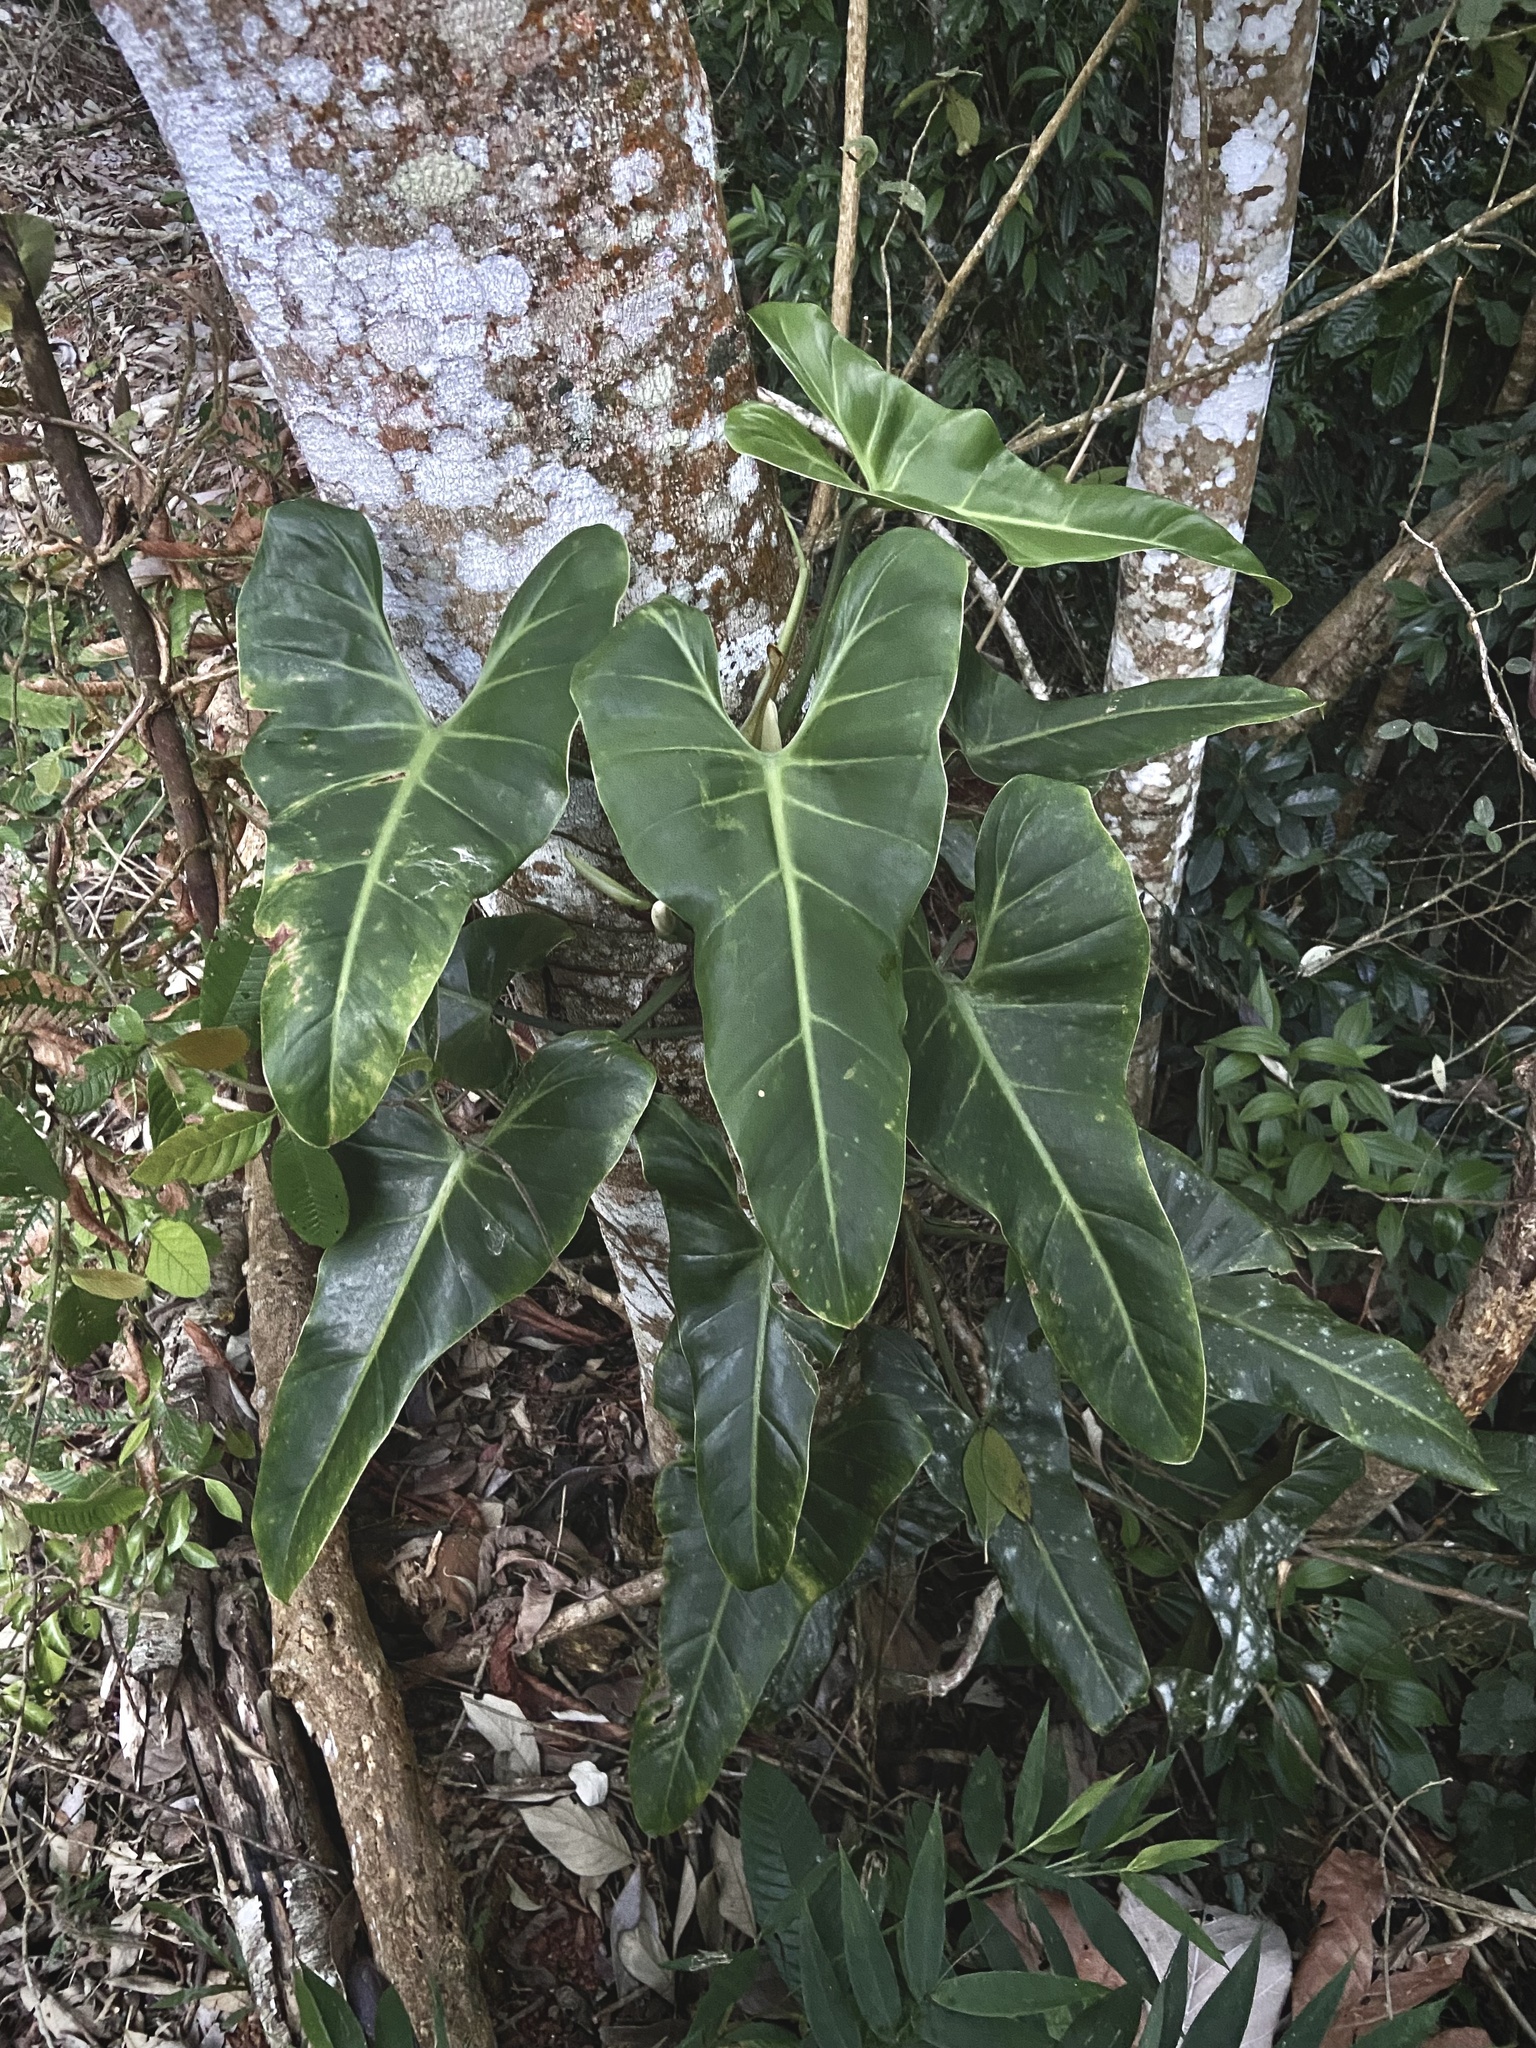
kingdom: Plantae
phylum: Tracheophyta
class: Liliopsida
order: Alismatales
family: Araceae
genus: Philodendron
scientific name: Philodendron hastatum
